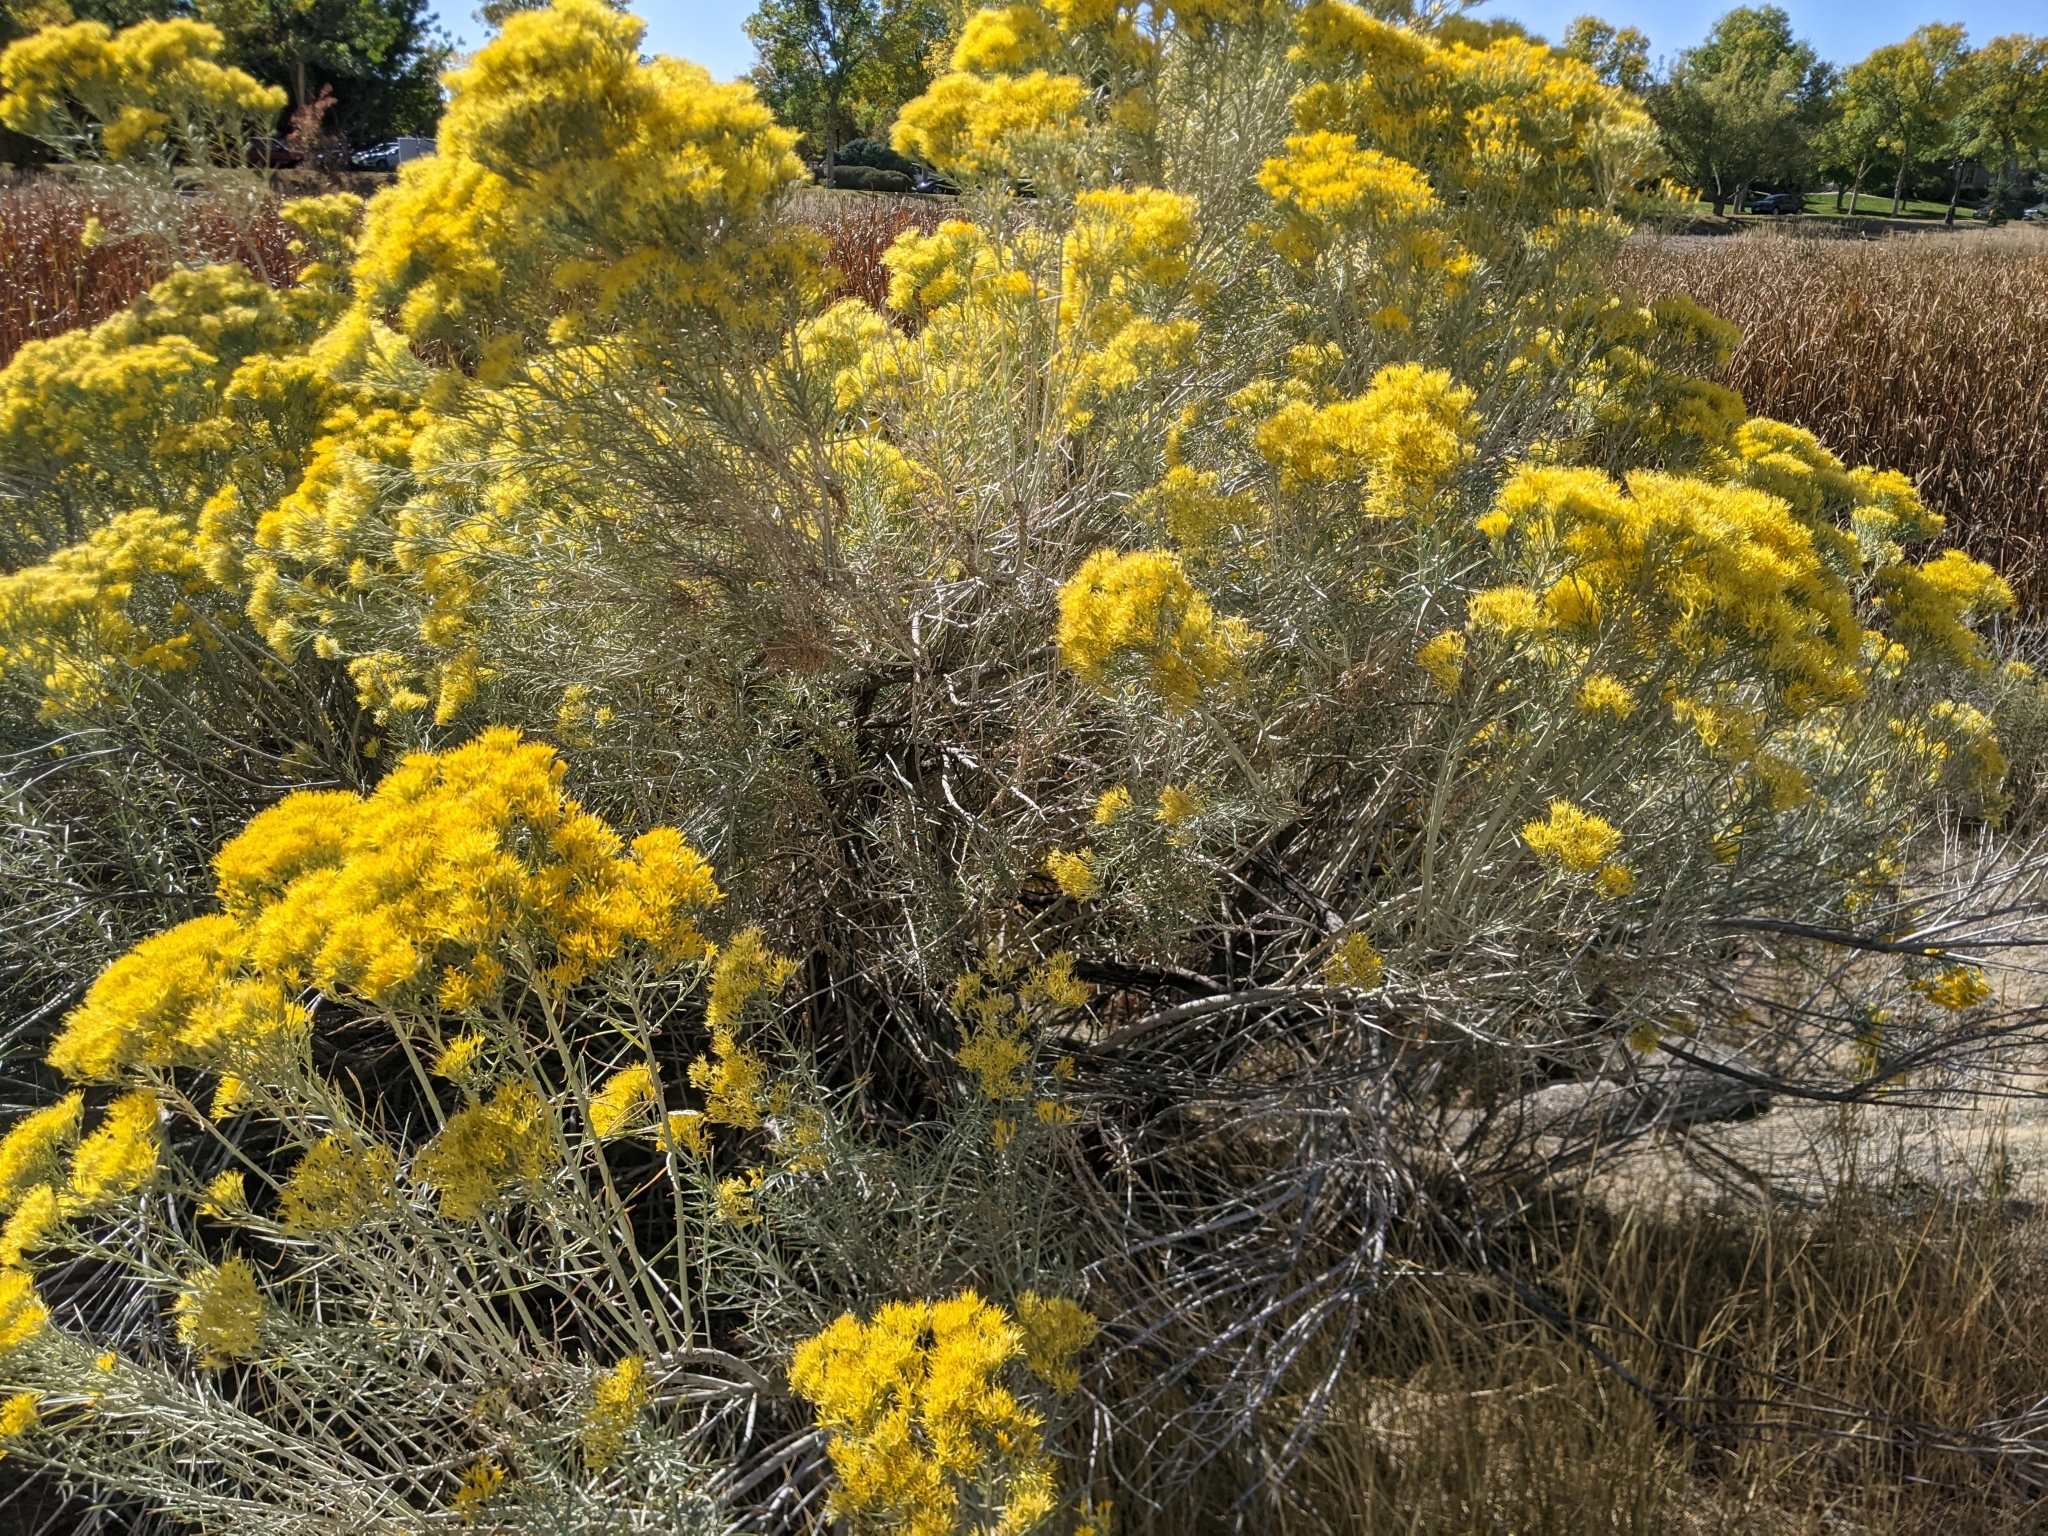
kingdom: Plantae
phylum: Tracheophyta
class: Magnoliopsida
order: Asterales
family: Asteraceae
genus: Ericameria
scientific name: Ericameria nauseosa
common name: Rubber rabbitbrush
